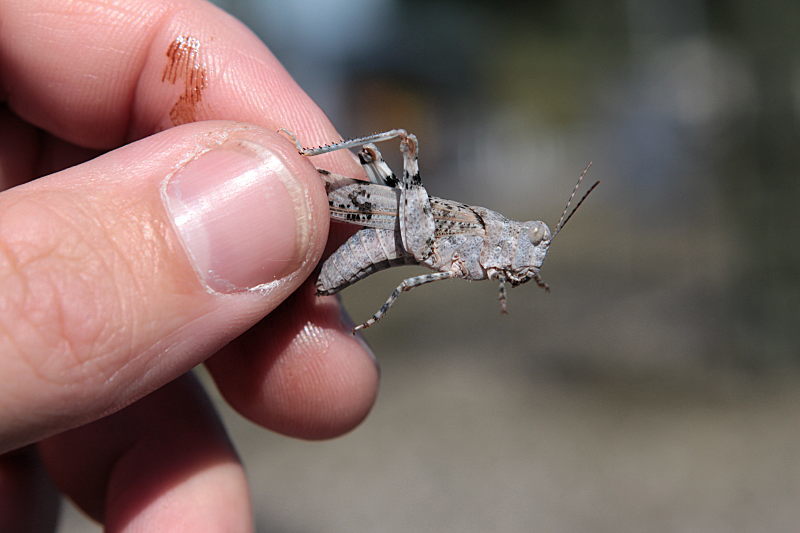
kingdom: Animalia
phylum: Arthropoda
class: Insecta
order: Orthoptera
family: Acrididae
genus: Sphingonotus
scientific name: Sphingonotus caerulans
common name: Blue-winged locust
